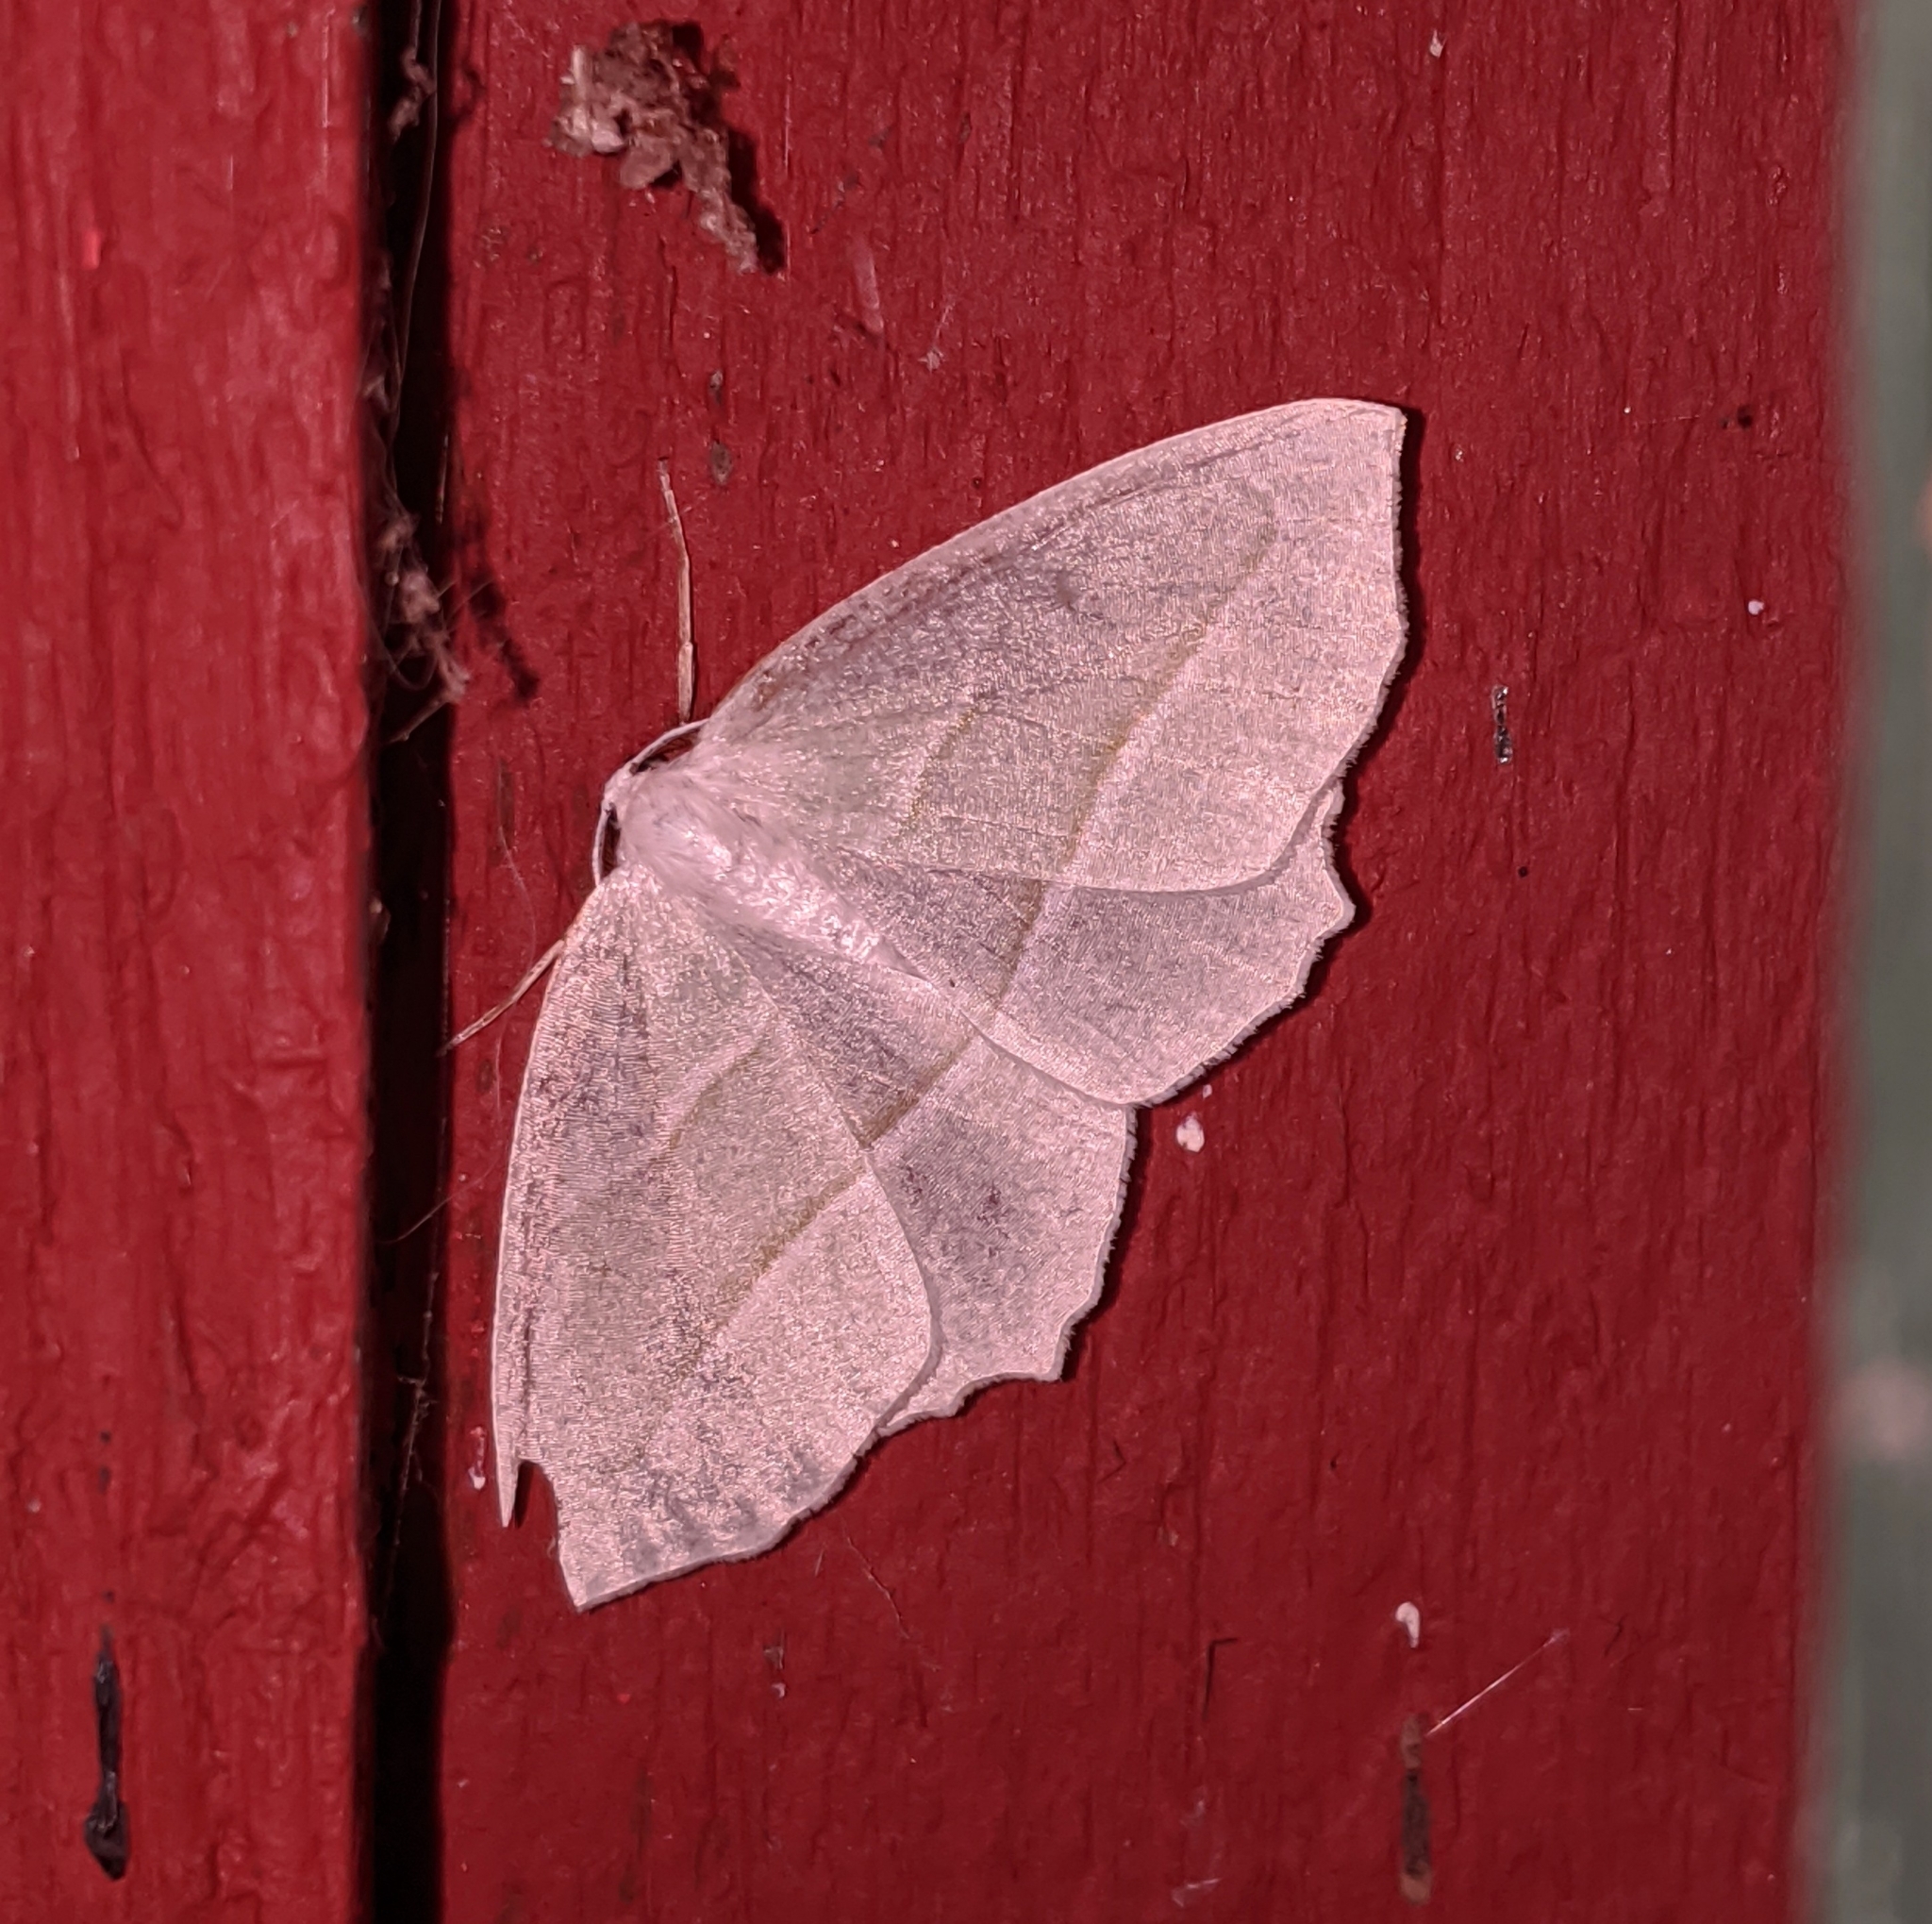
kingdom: Animalia
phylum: Arthropoda
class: Insecta
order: Lepidoptera
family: Geometridae
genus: Campaea
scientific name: Campaea perlata
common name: Fringed looper
